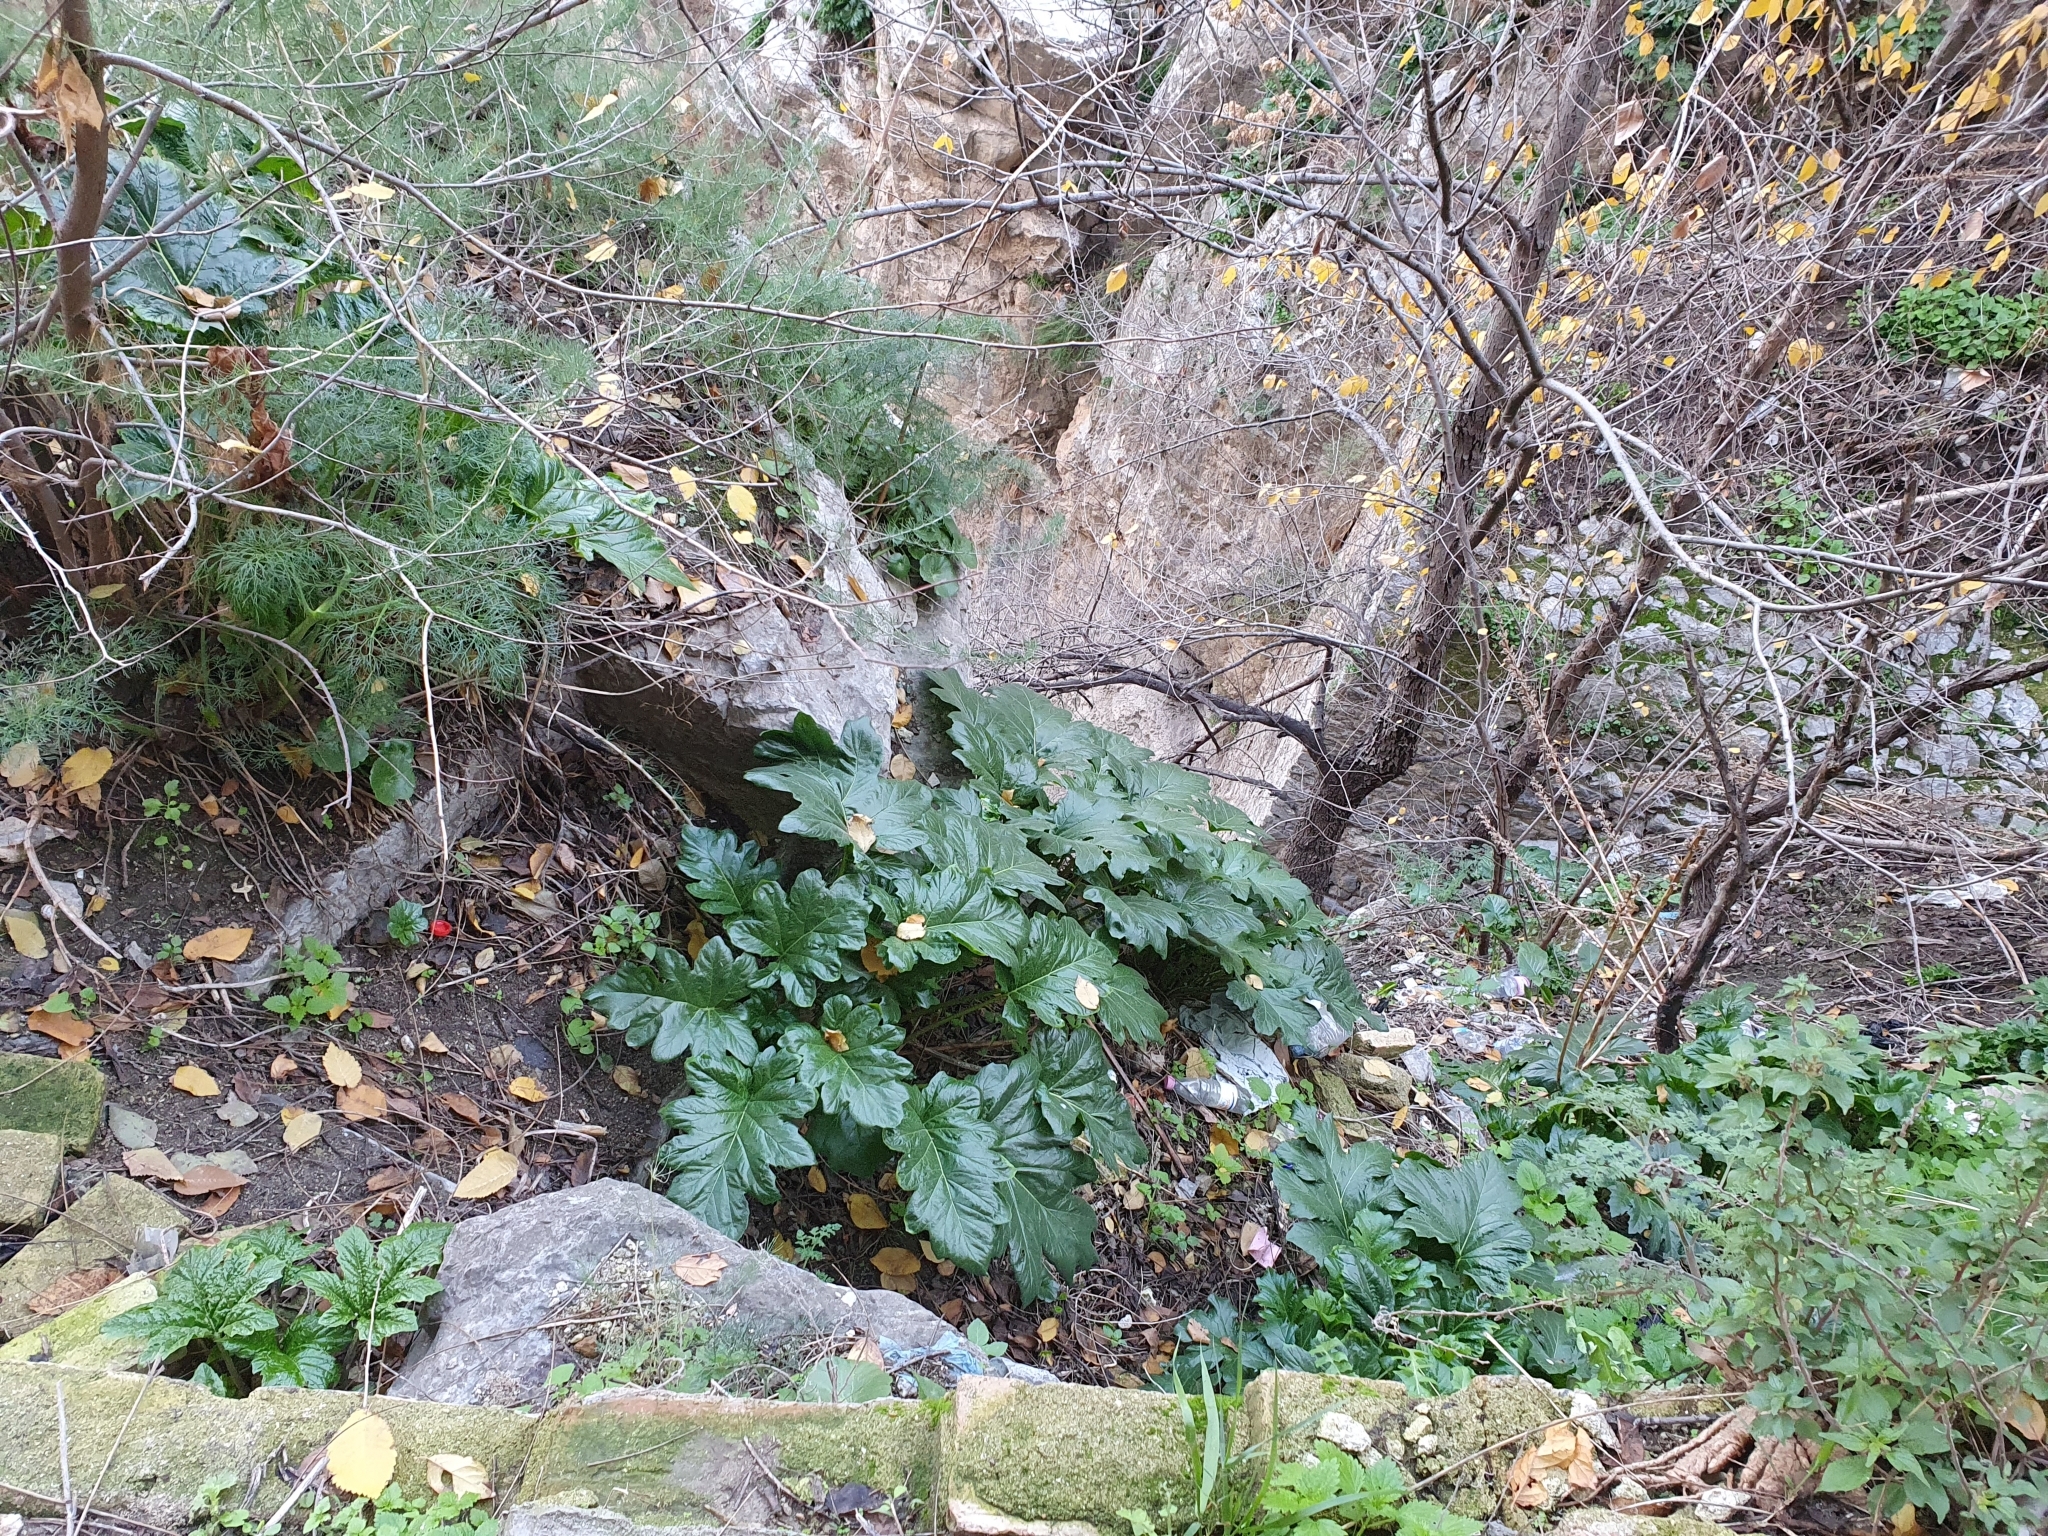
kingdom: Plantae
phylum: Tracheophyta
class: Magnoliopsida
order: Lamiales
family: Acanthaceae
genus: Acanthus
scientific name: Acanthus mollis
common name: Bear's-breech
